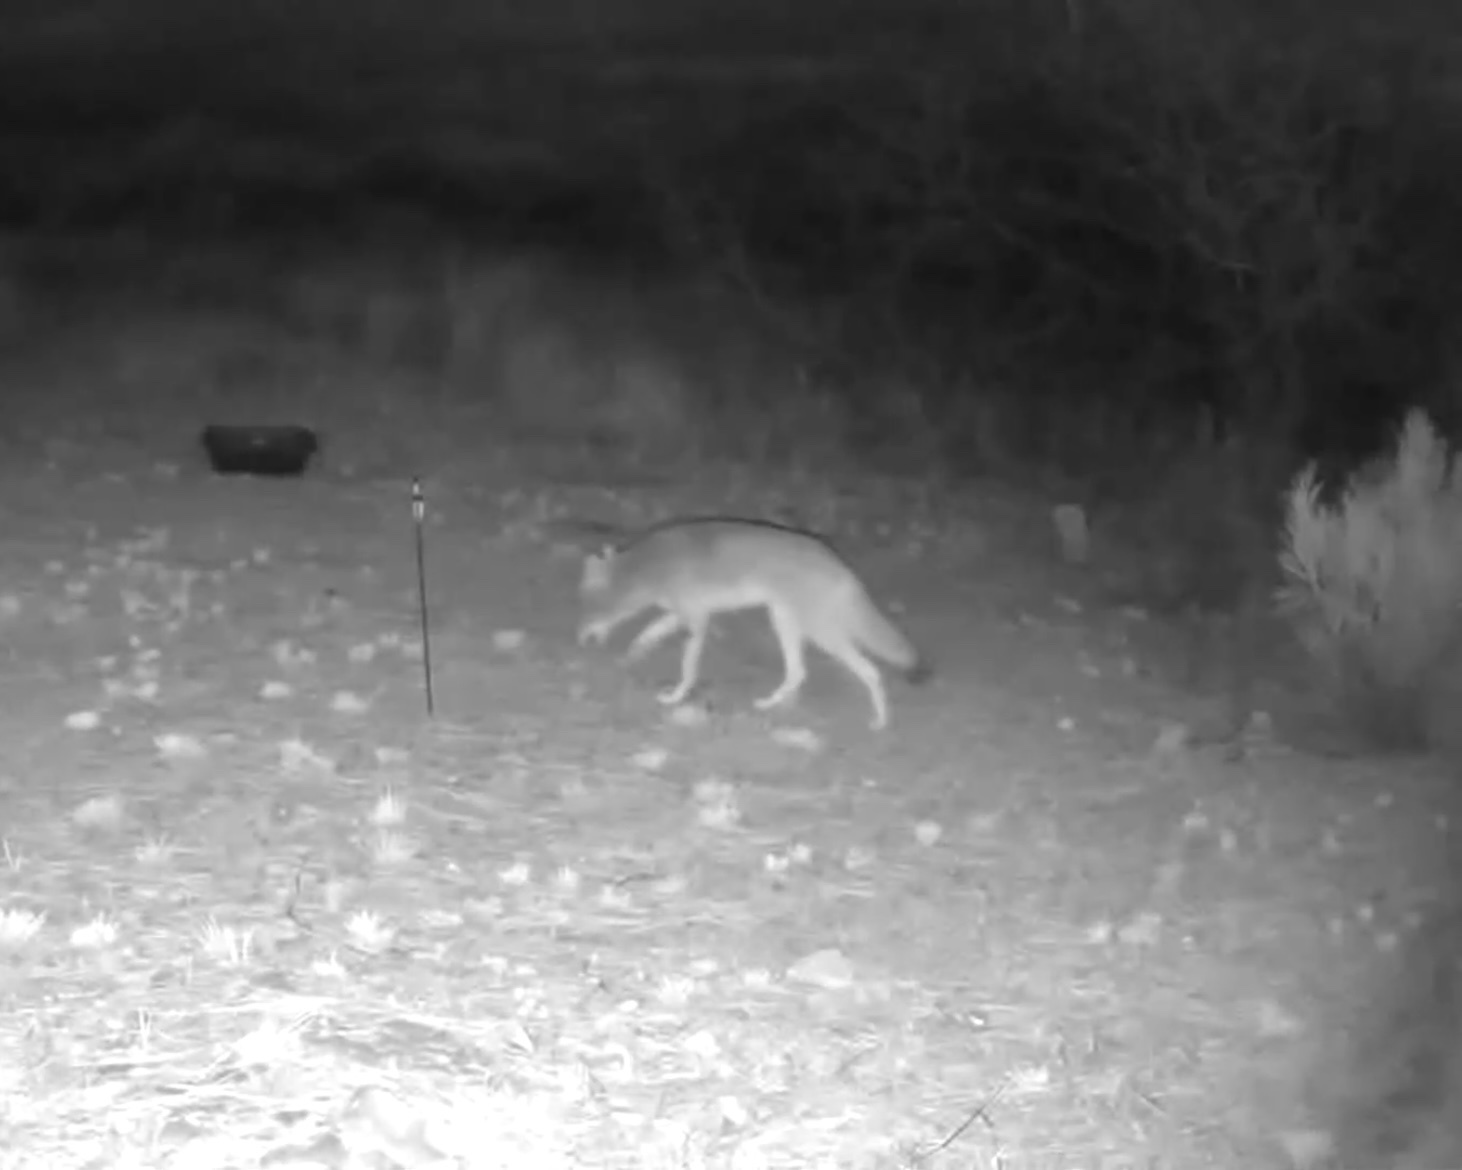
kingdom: Animalia
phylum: Chordata
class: Mammalia
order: Carnivora
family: Canidae
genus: Canis
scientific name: Canis latrans
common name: Coyote
